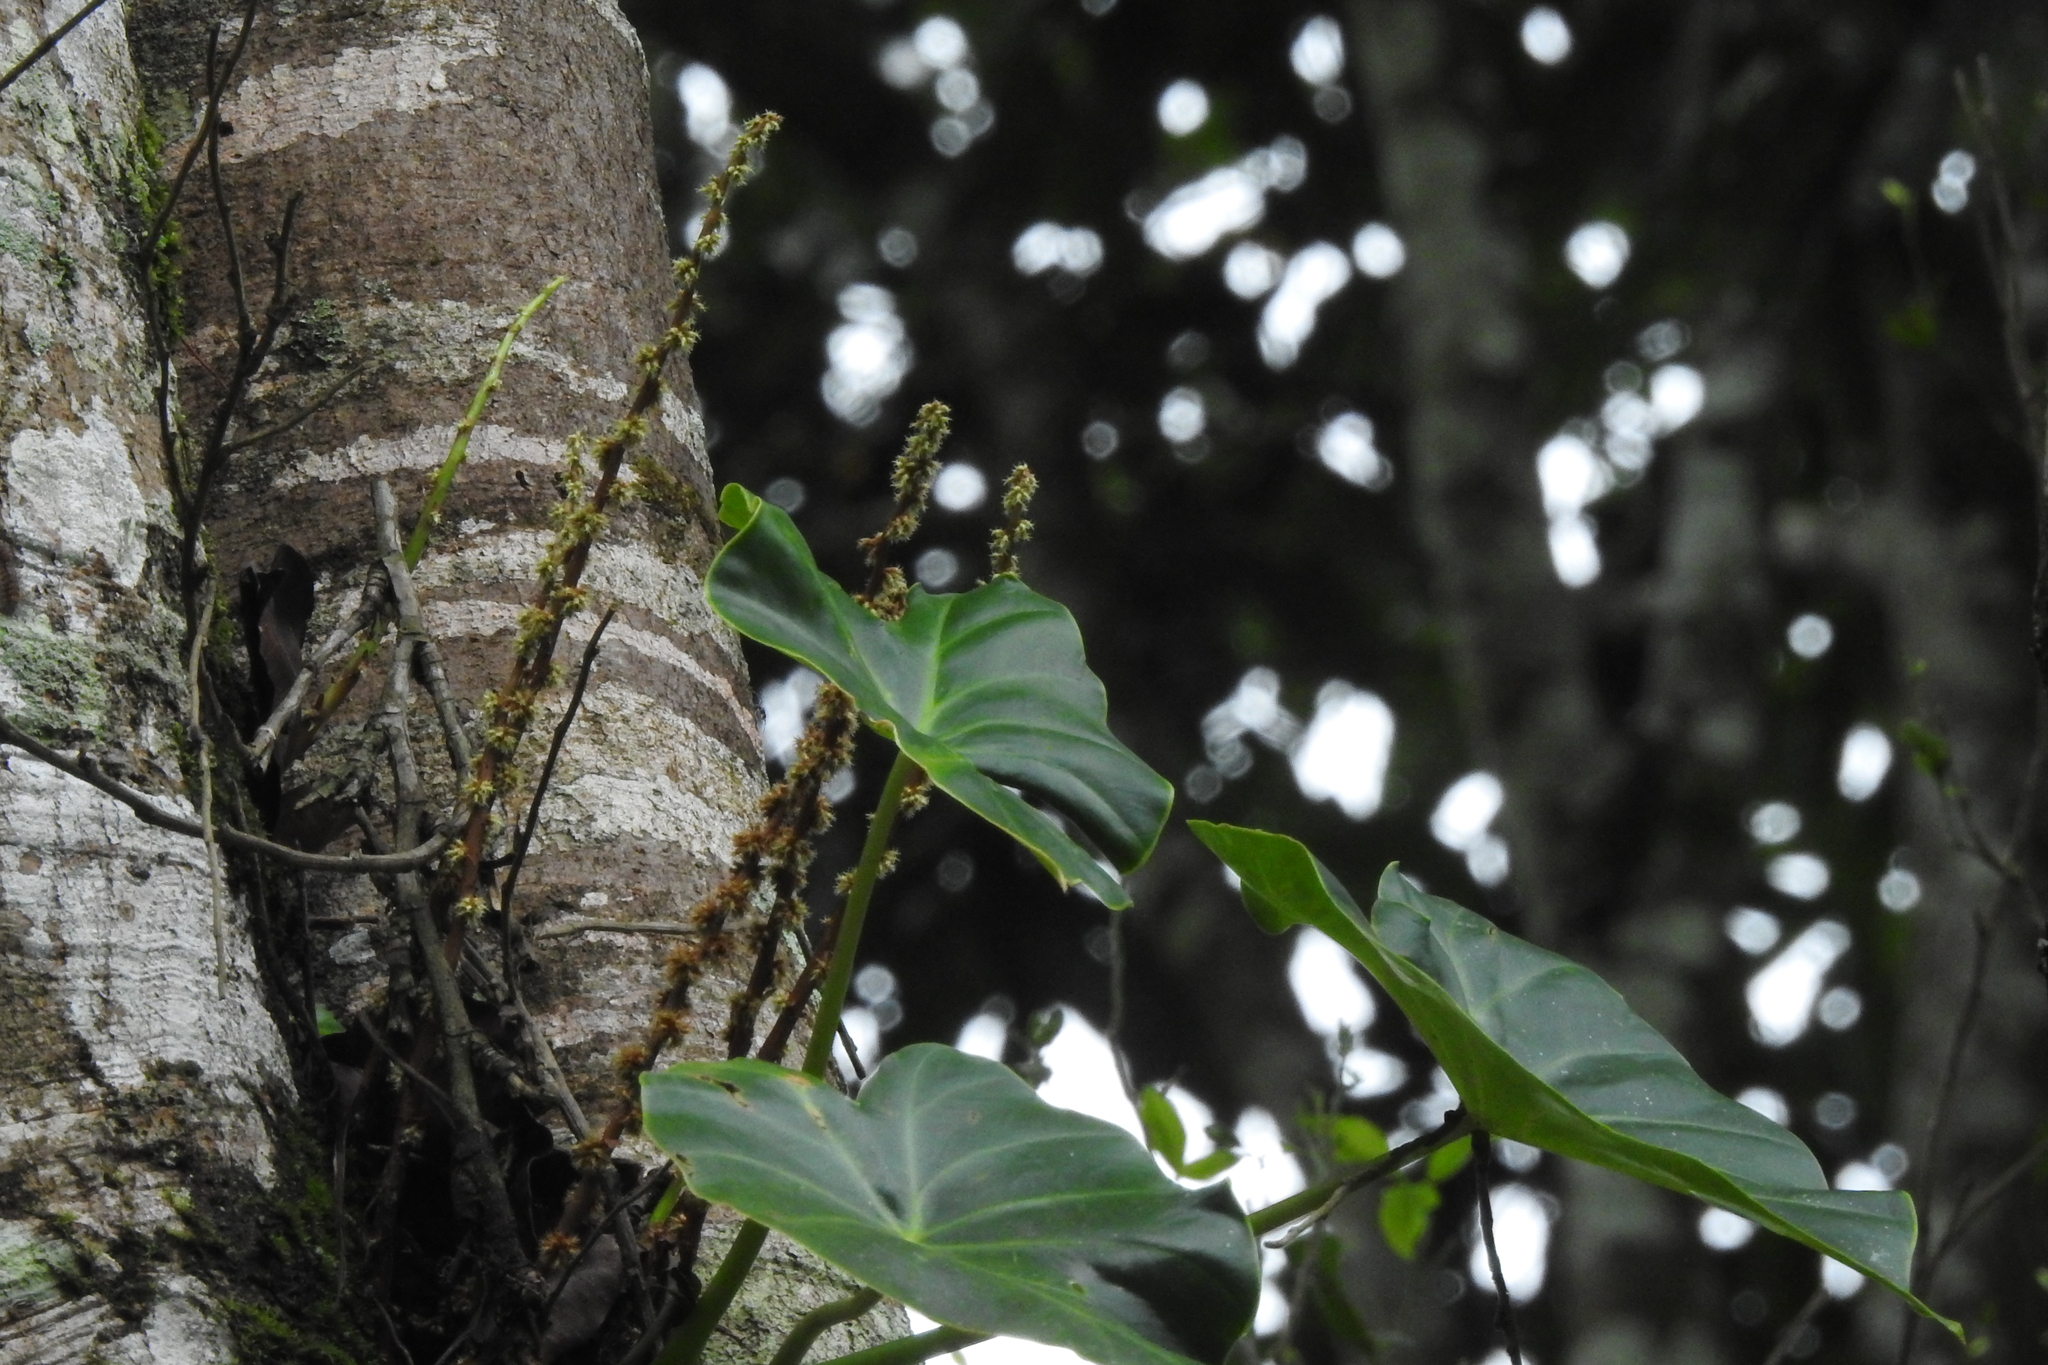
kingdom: Plantae
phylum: Tracheophyta
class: Liliopsida
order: Alismatales
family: Araceae
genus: Remusatia
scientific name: Remusatia vivipara
